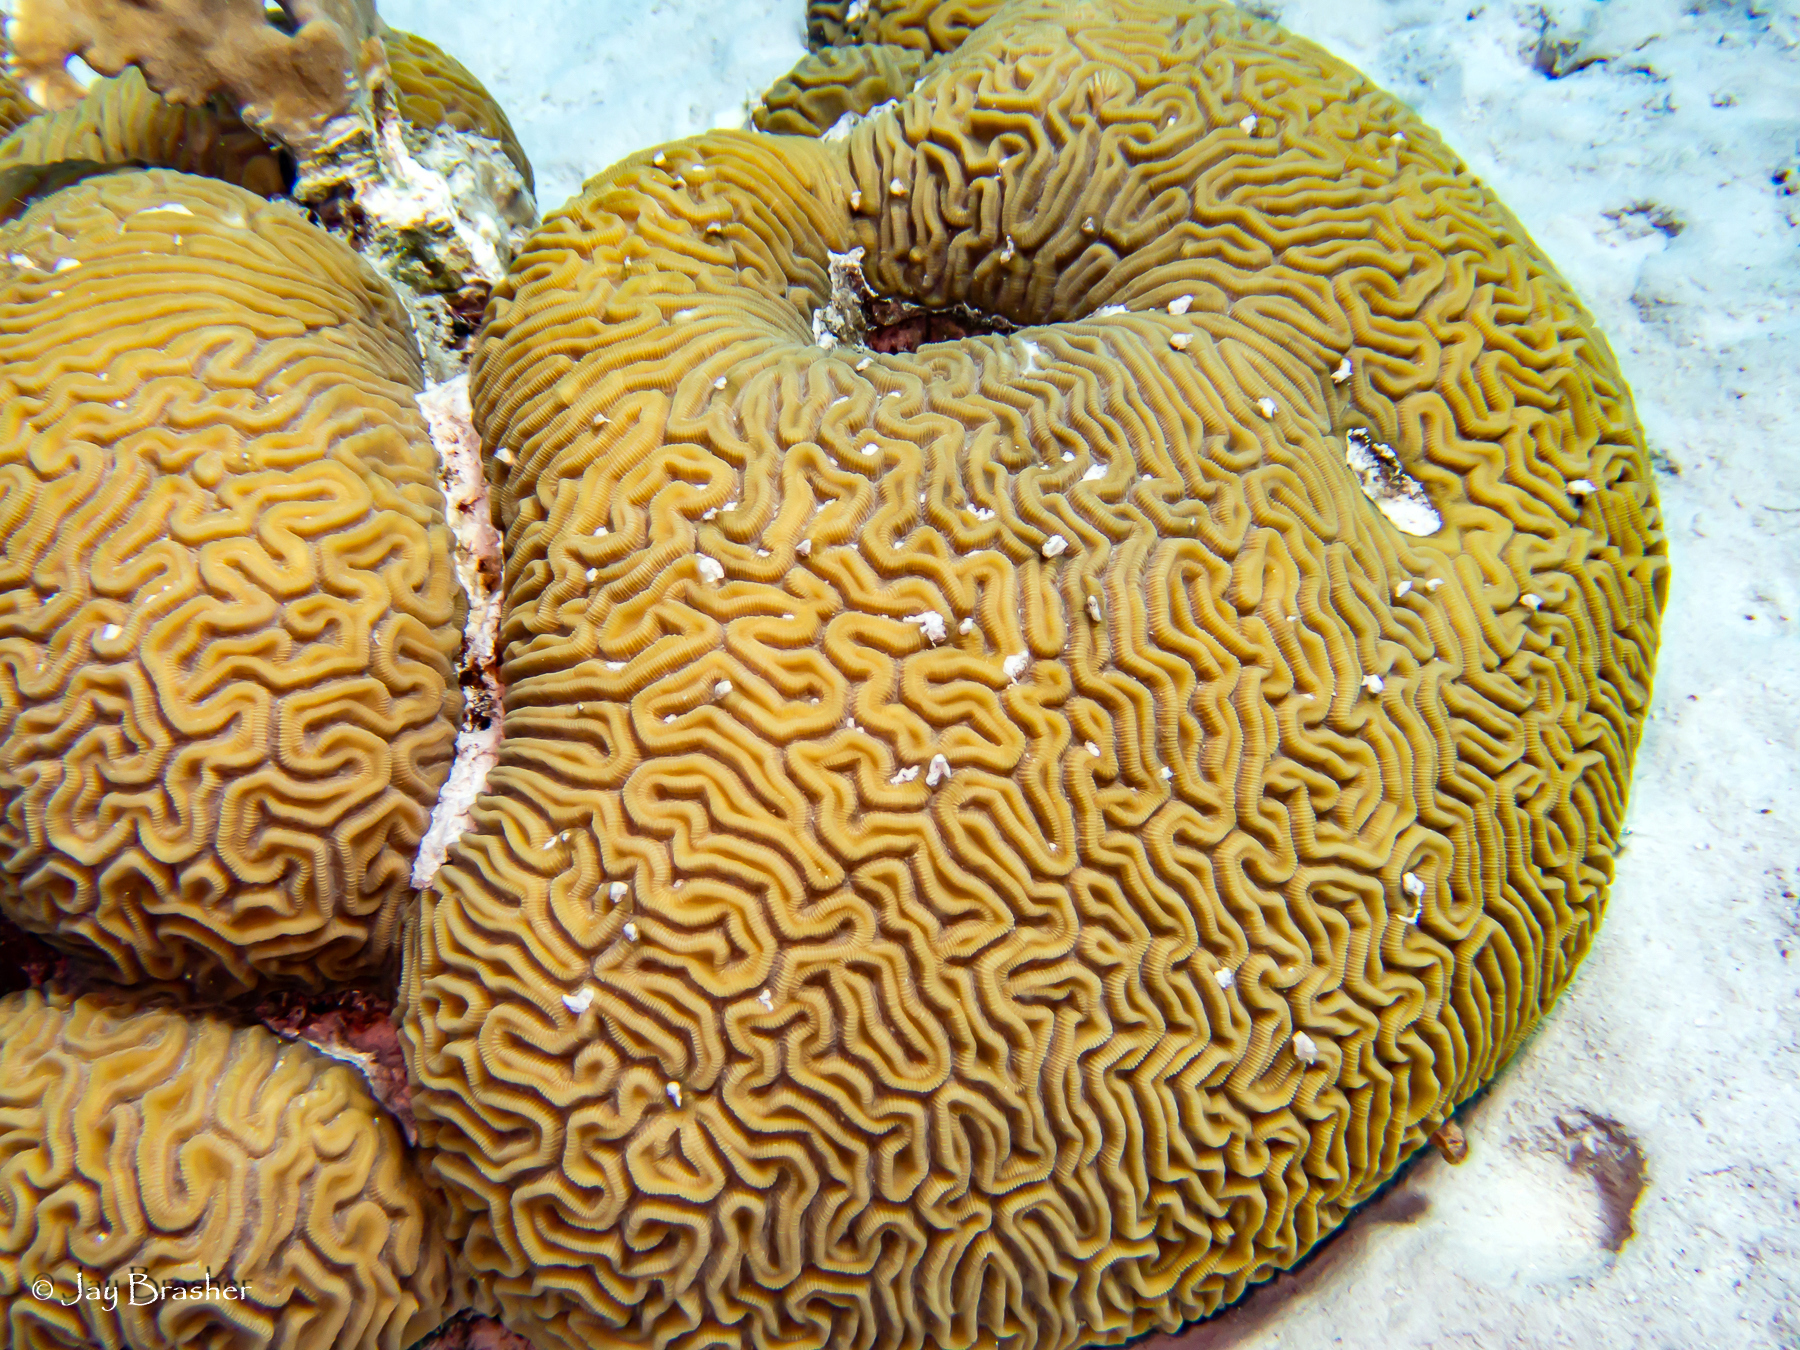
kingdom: Animalia
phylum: Cnidaria
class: Anthozoa
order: Scleractinia
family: Faviidae
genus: Diploria
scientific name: Diploria labyrinthiformis
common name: Grooved brain coral
